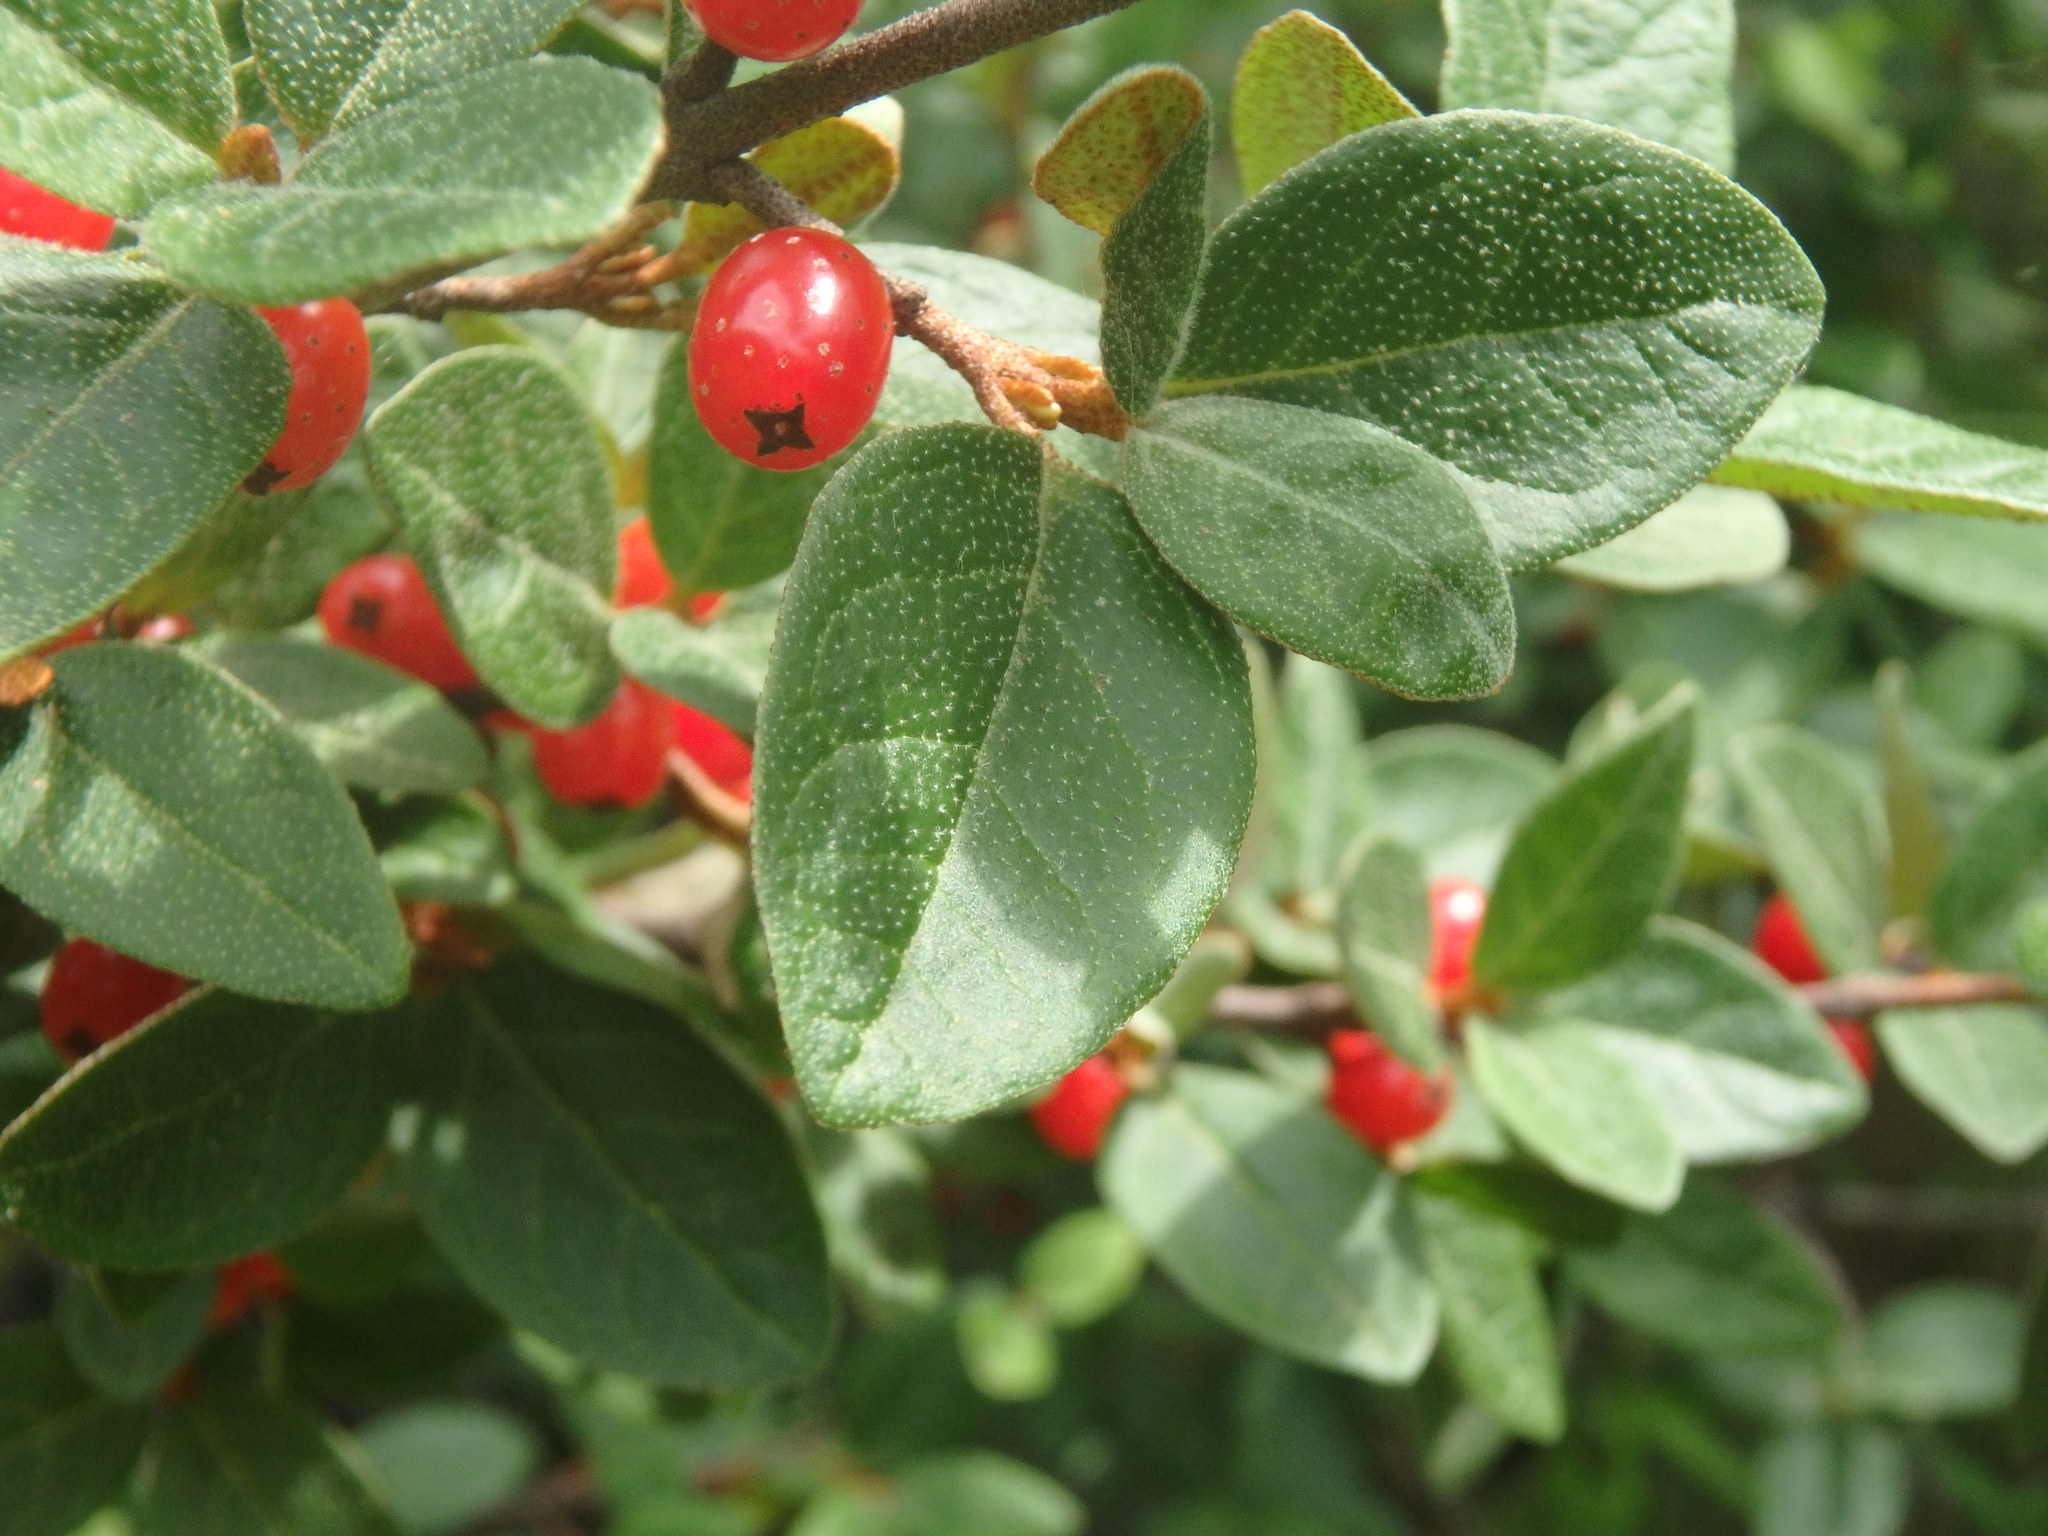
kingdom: Plantae
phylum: Tracheophyta
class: Magnoliopsida
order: Rosales
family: Elaeagnaceae
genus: Shepherdia
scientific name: Shepherdia canadensis
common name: Soapberry
